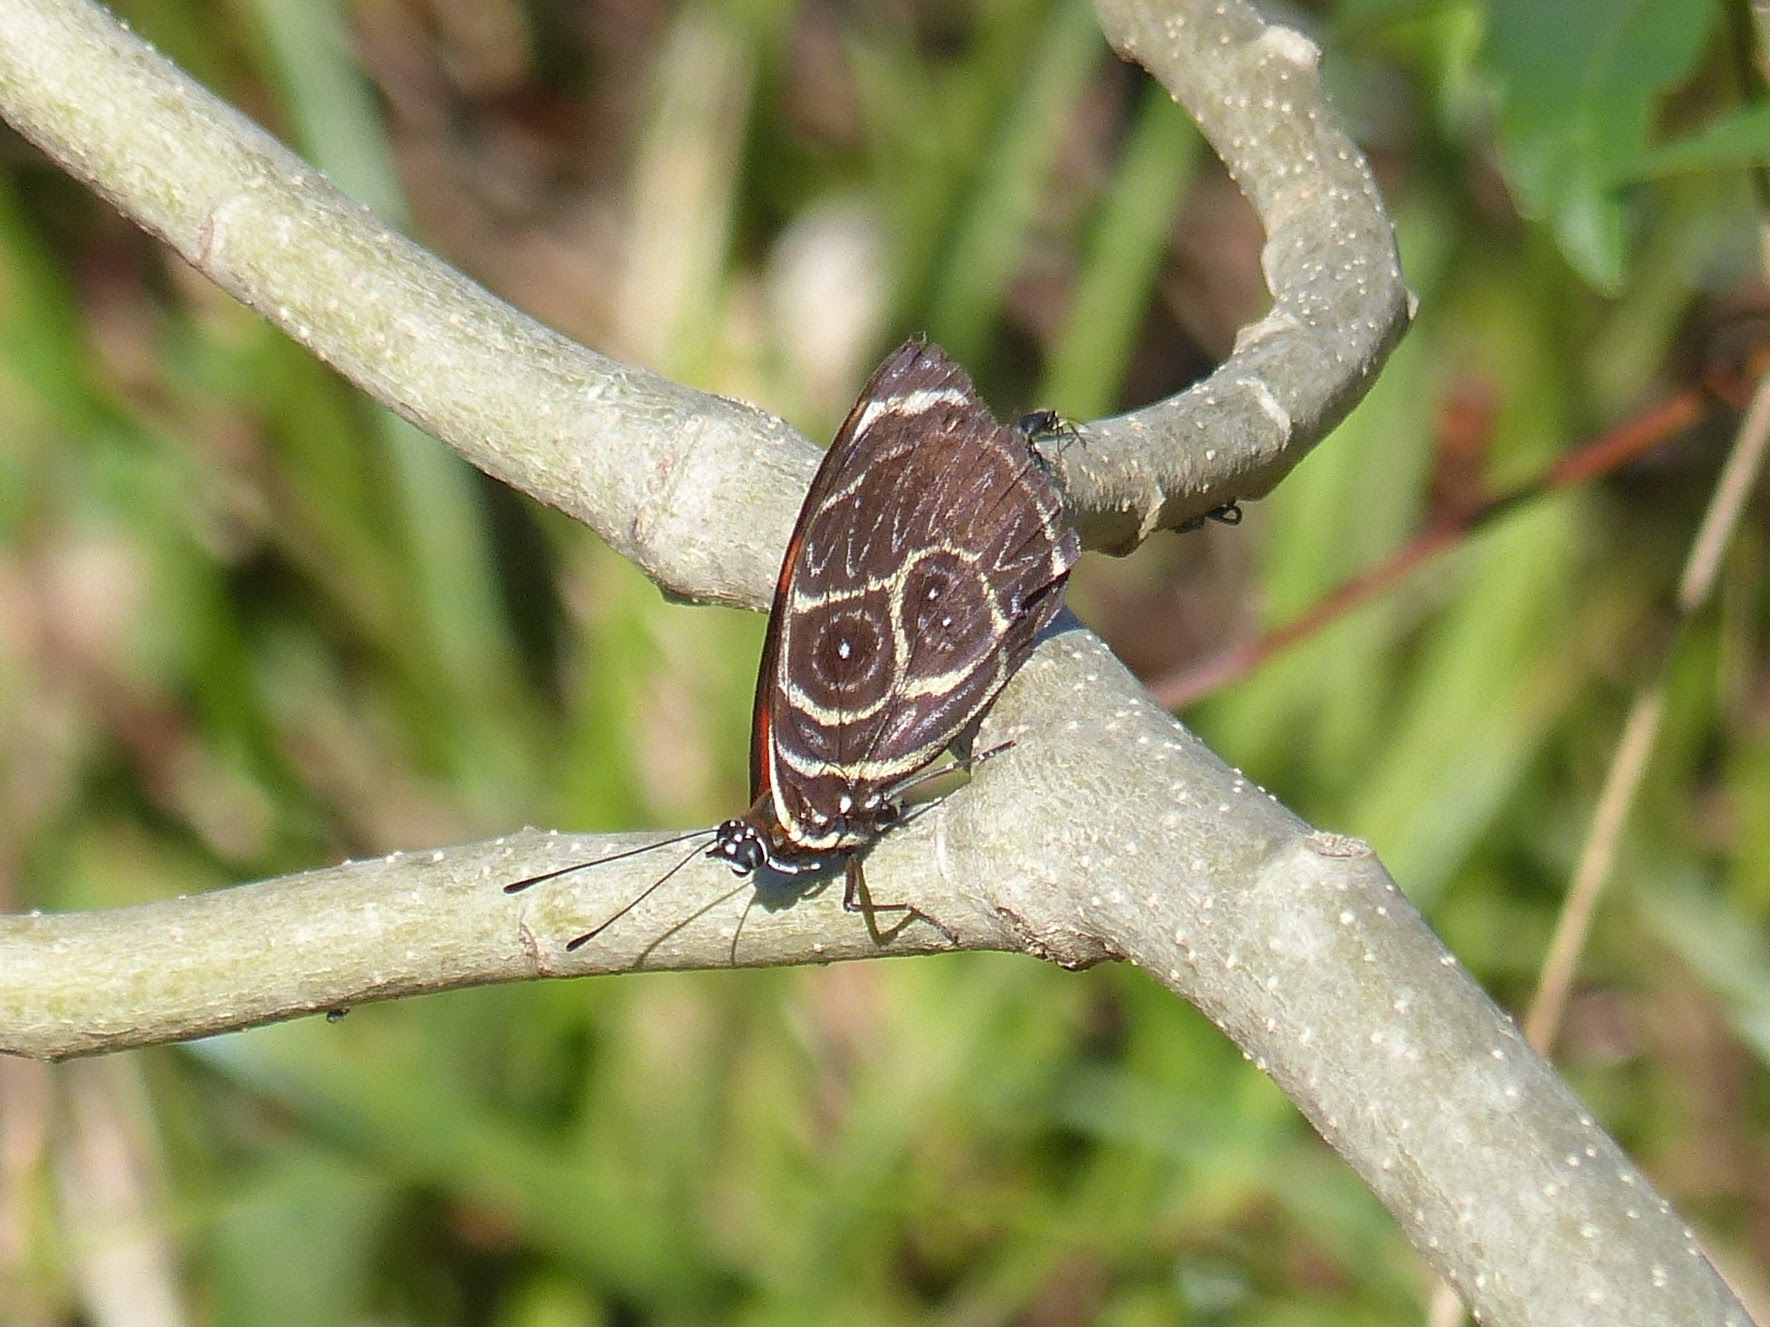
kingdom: Animalia
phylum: Arthropoda
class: Insecta
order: Lepidoptera
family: Nymphalidae
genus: Catagramma
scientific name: Catagramma Callicore sorana
